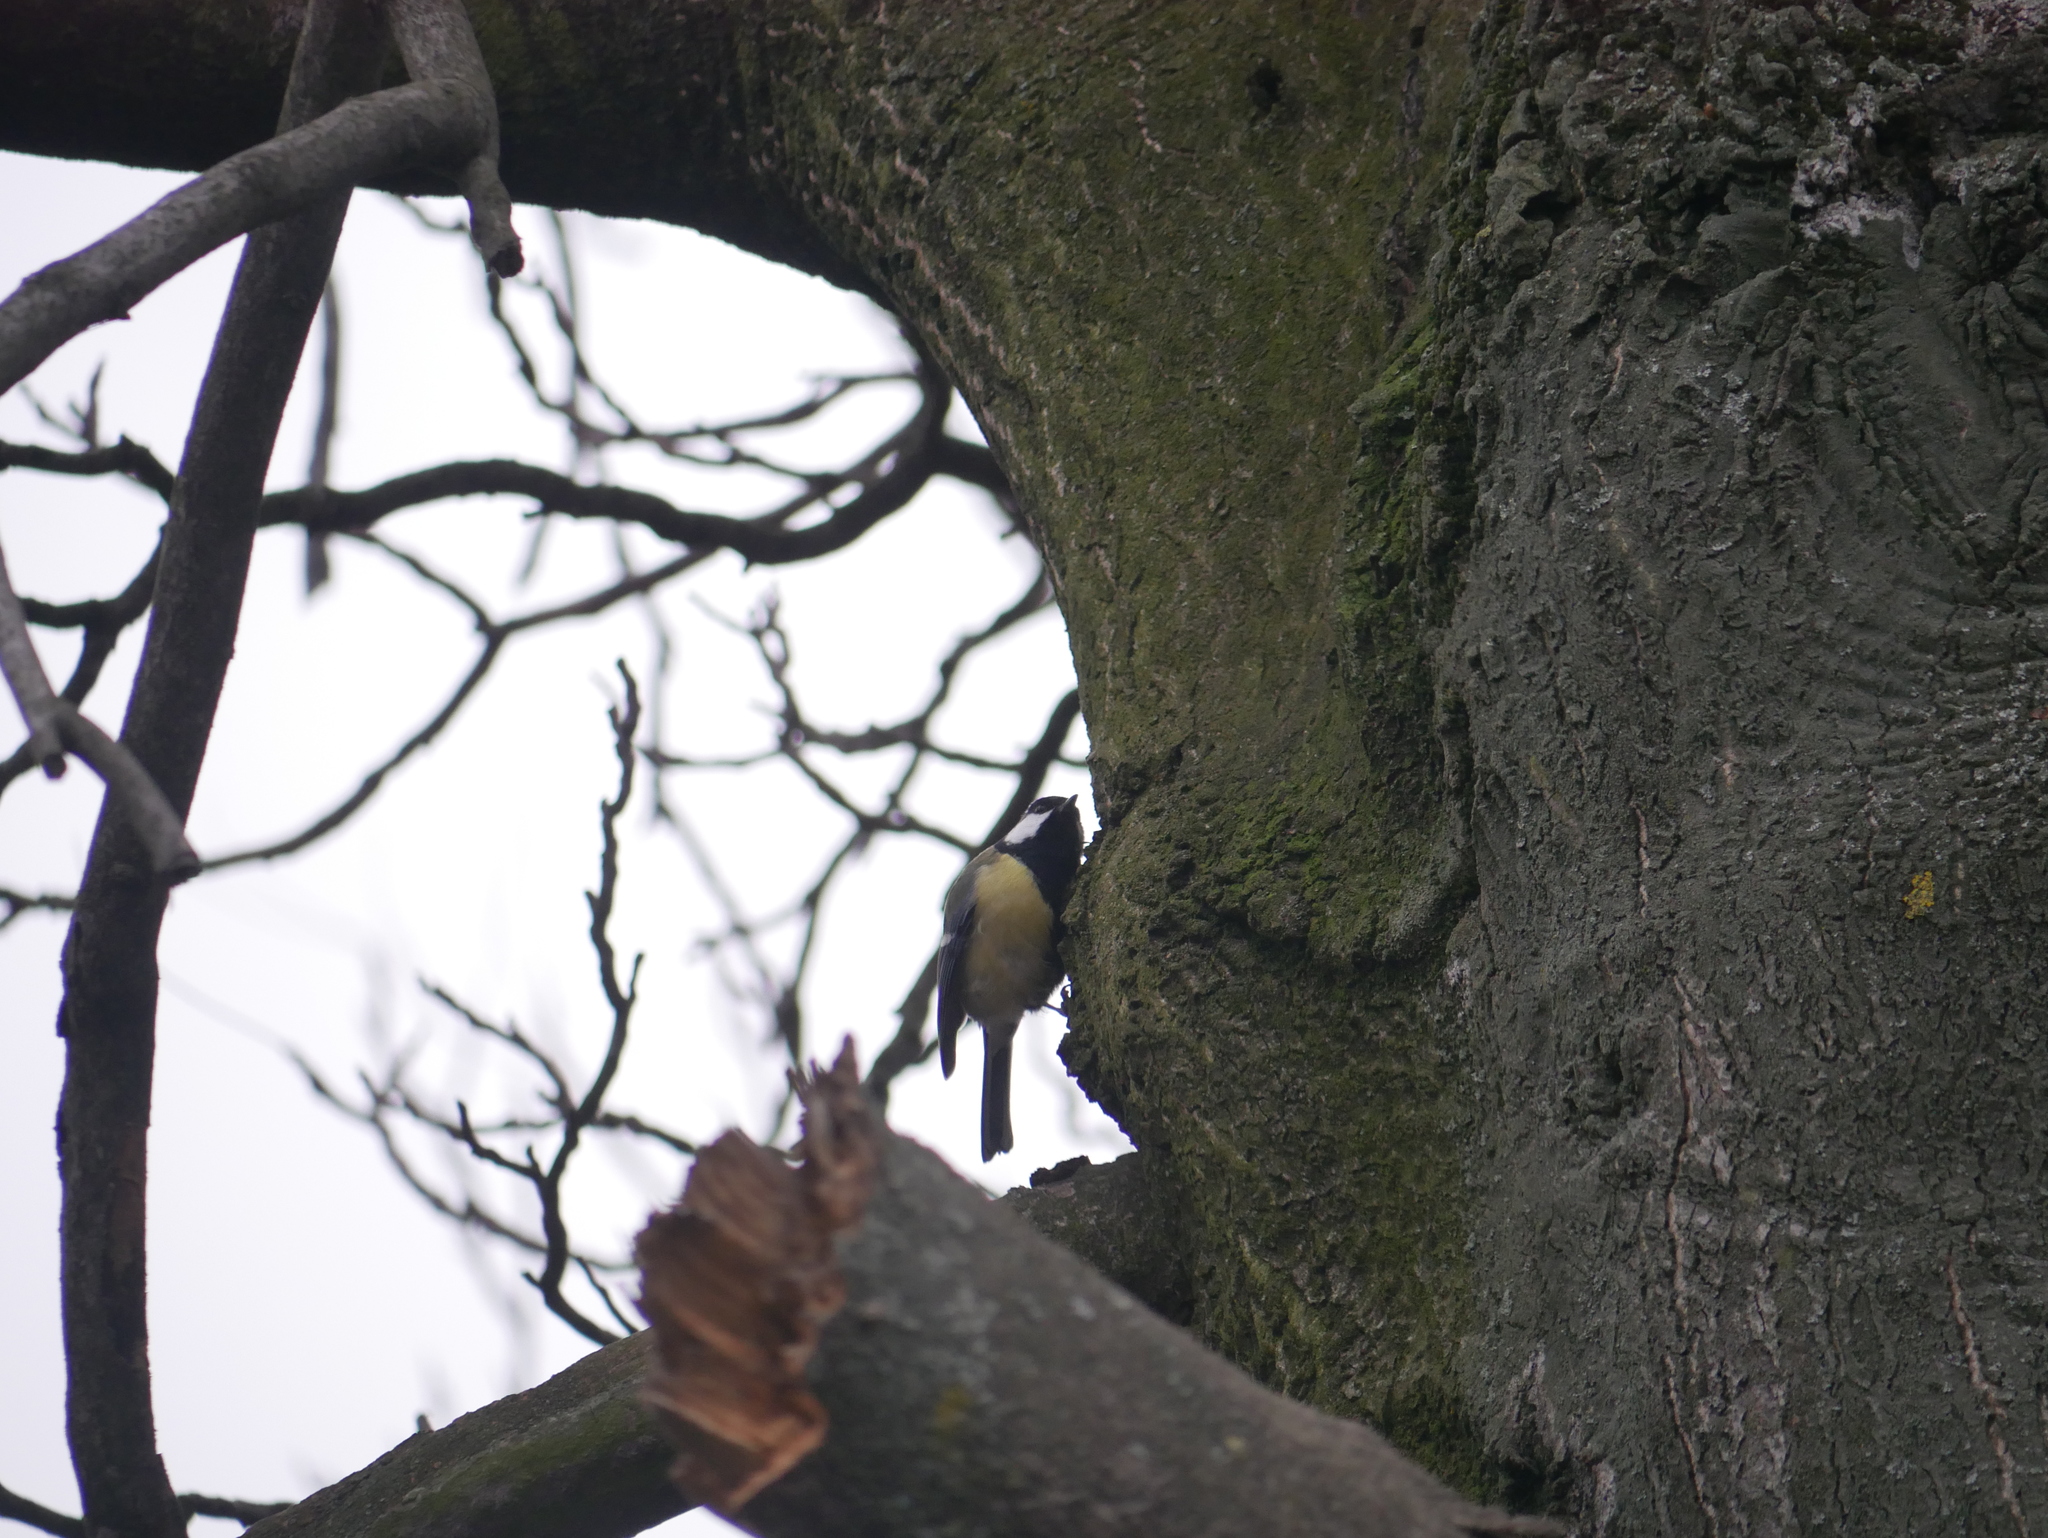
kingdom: Animalia
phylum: Chordata
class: Aves
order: Passeriformes
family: Paridae
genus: Parus
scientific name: Parus major
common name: Great tit
